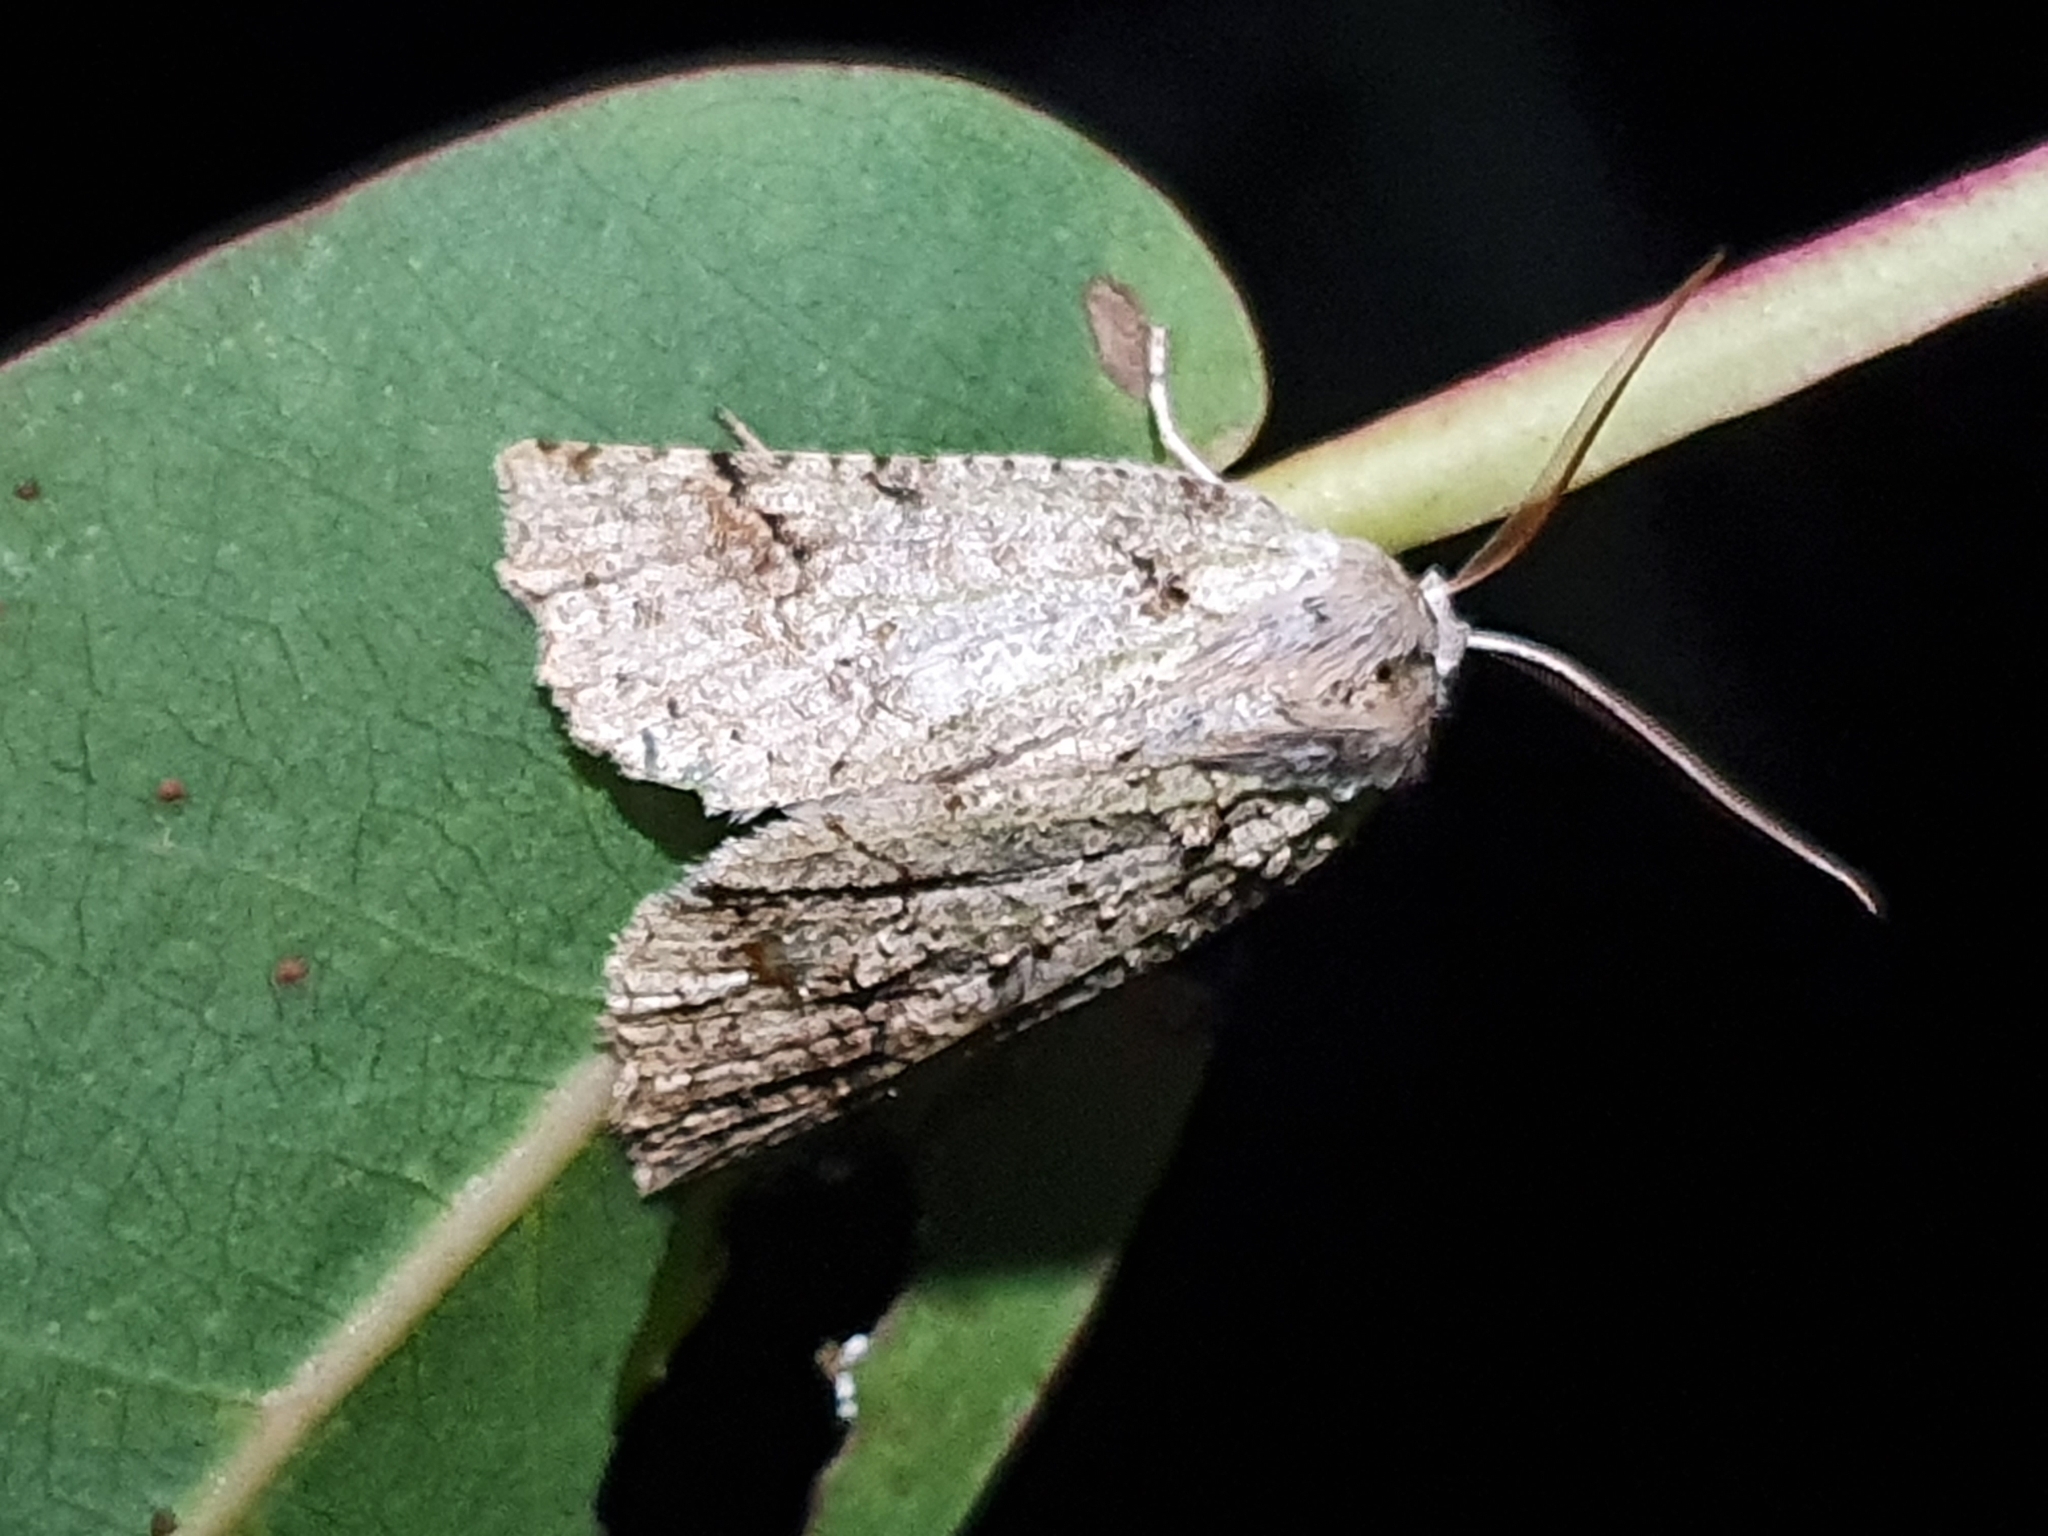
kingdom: Animalia
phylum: Arthropoda
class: Insecta
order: Lepidoptera
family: Geometridae
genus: Declana
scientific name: Declana floccosa
